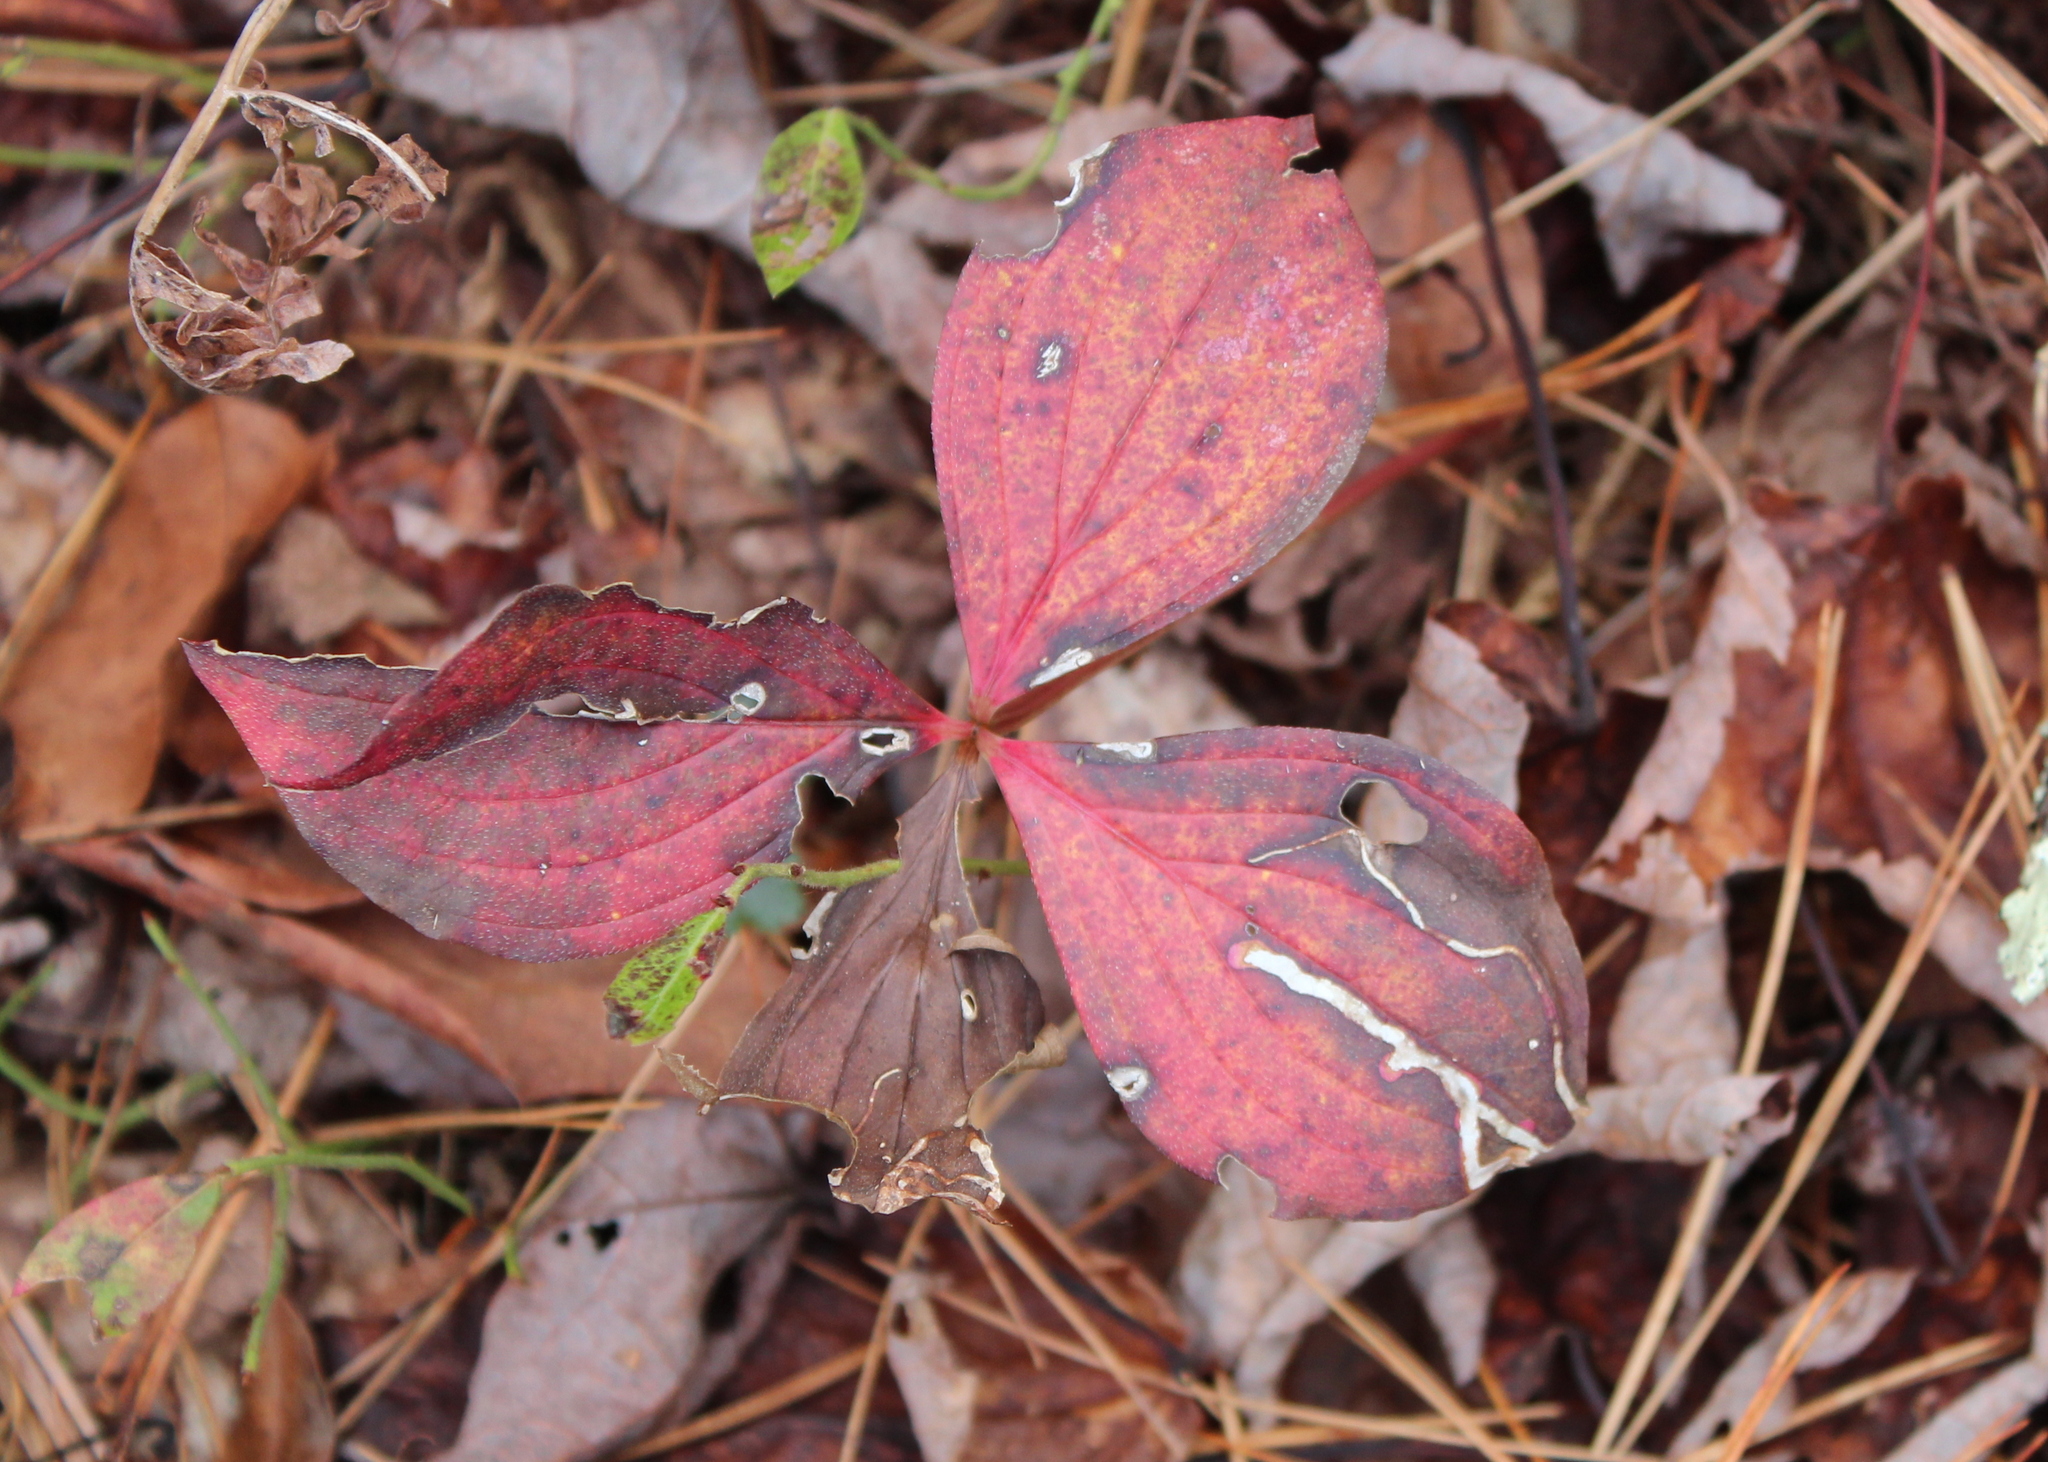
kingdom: Plantae
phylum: Tracheophyta
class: Magnoliopsida
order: Cornales
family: Cornaceae
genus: Cornus
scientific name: Cornus canadensis
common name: Creeping dogwood
